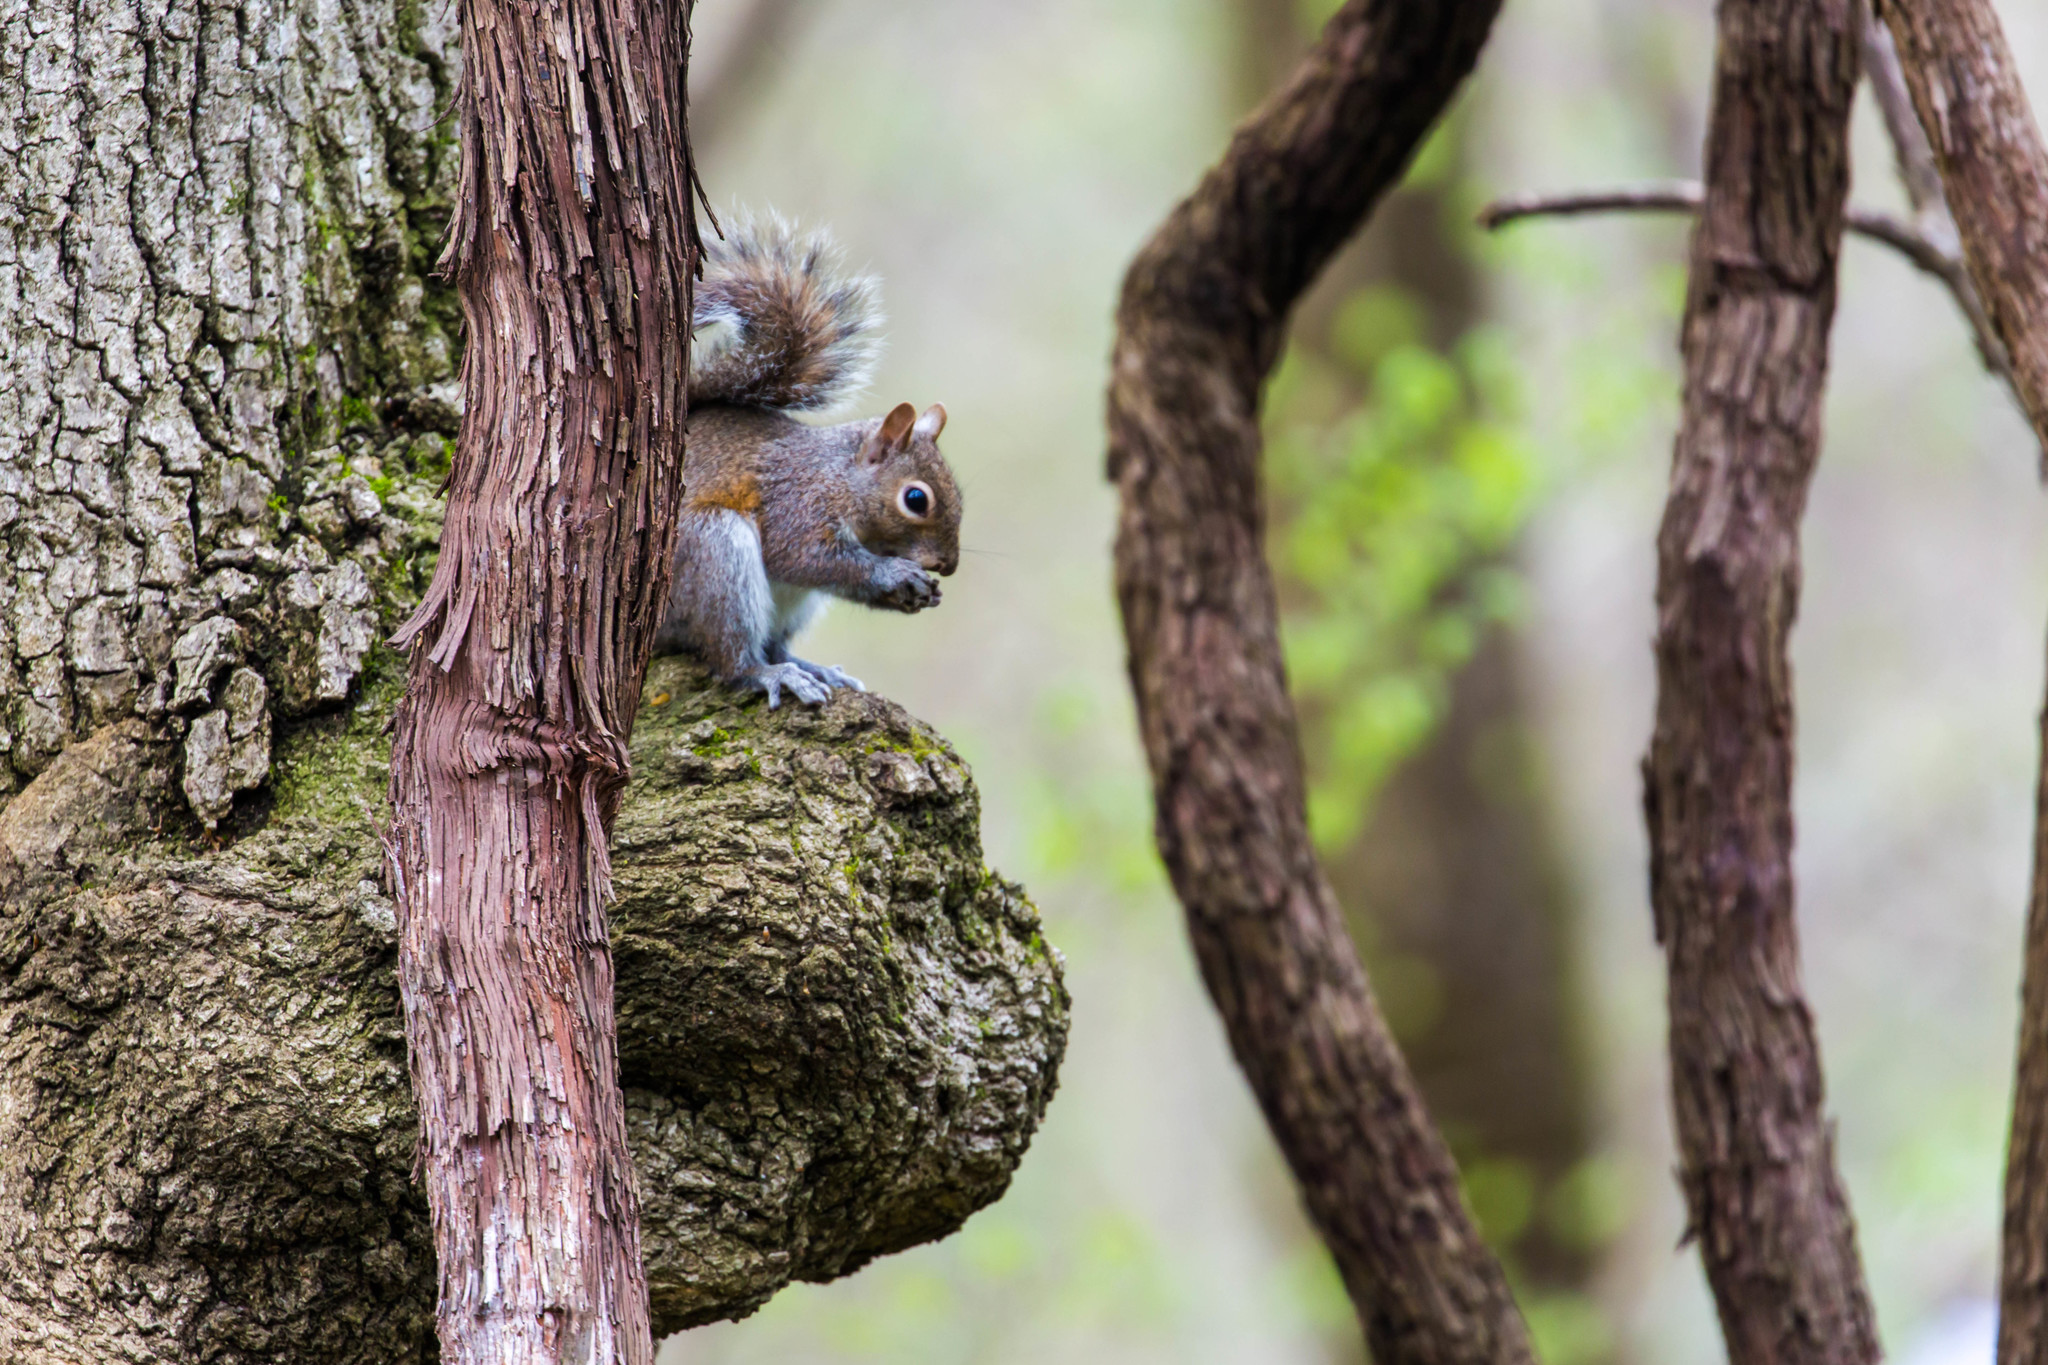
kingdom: Animalia
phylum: Chordata
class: Mammalia
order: Rodentia
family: Sciuridae
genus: Sciurus
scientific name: Sciurus carolinensis
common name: Eastern gray squirrel
